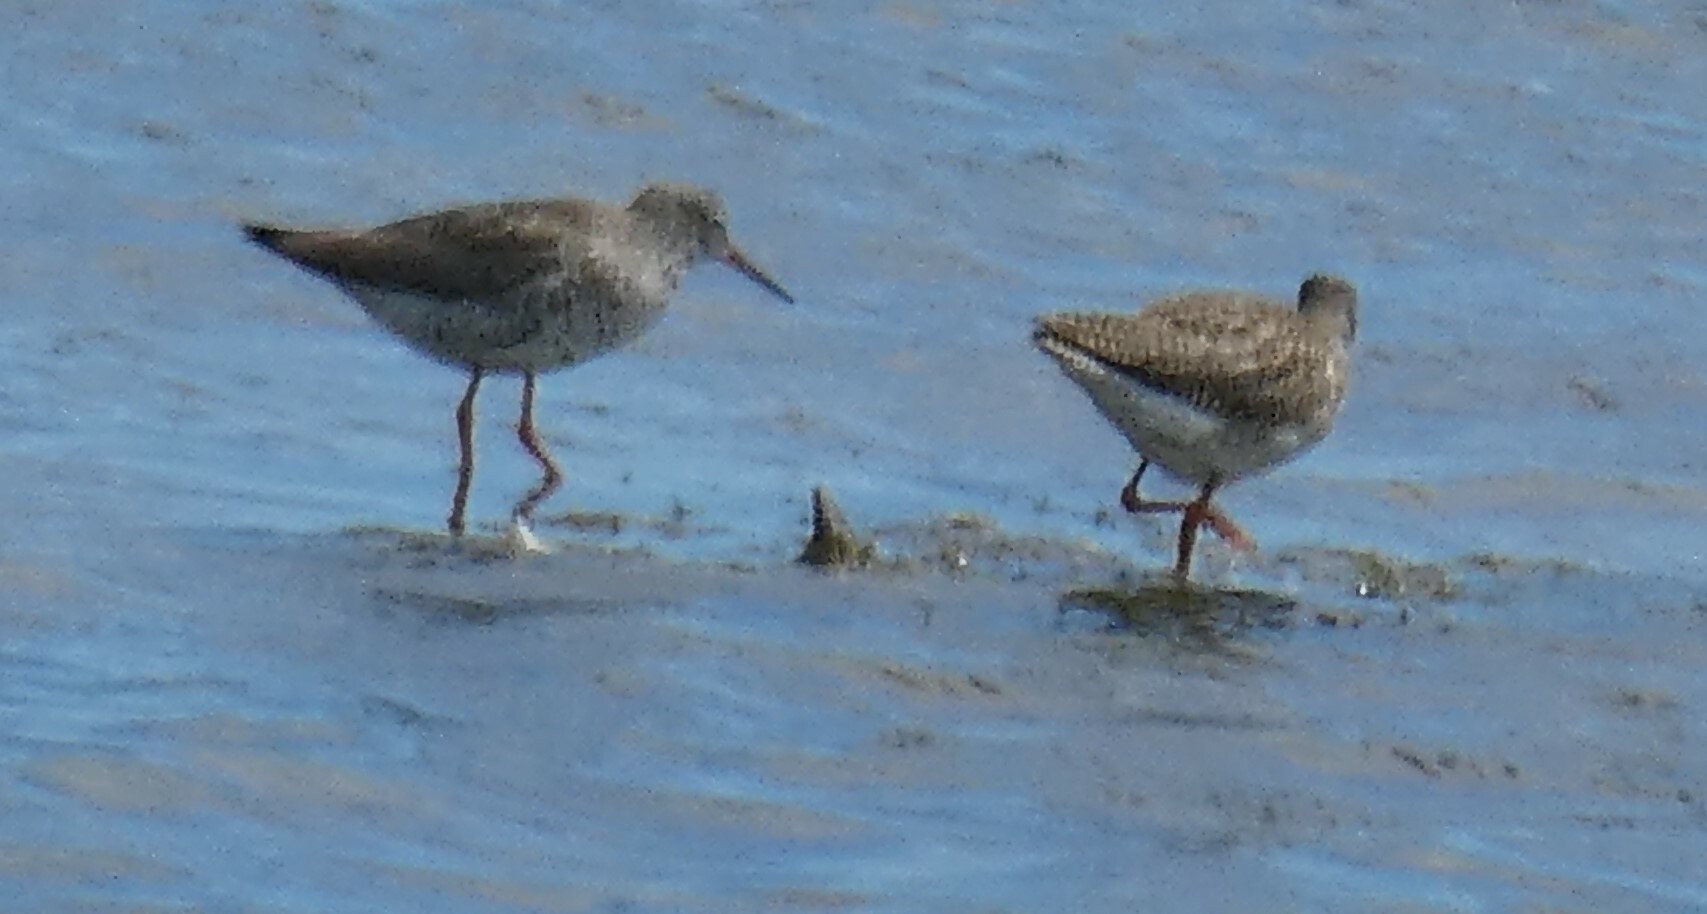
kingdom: Animalia
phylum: Chordata
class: Aves
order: Charadriiformes
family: Scolopacidae
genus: Tringa
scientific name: Tringa totanus
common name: Common redshank
